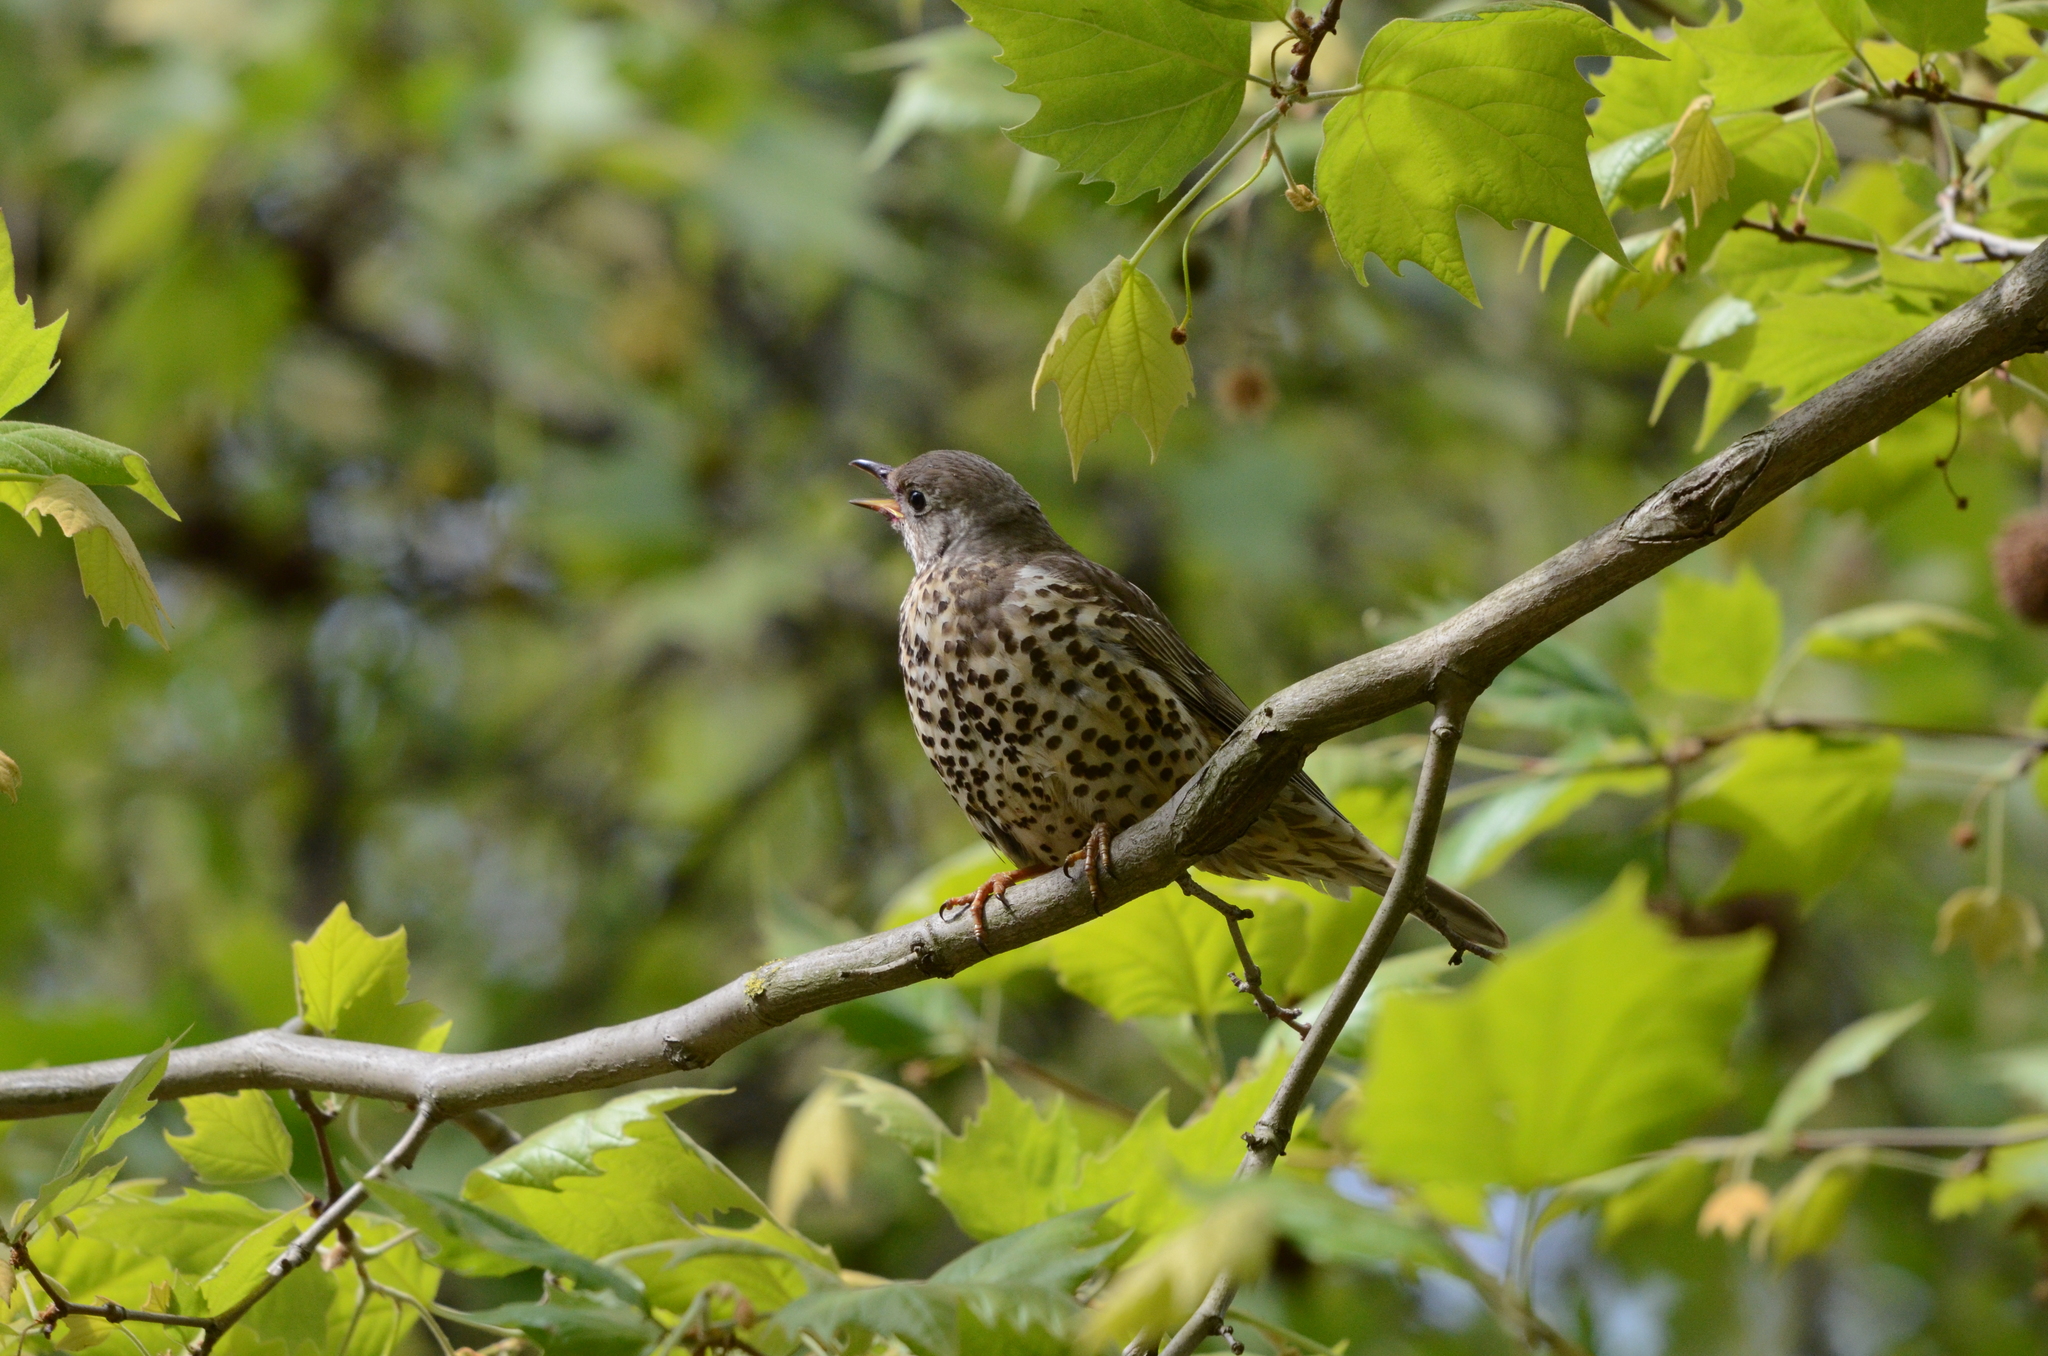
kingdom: Animalia
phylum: Chordata
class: Aves
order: Passeriformes
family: Turdidae
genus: Turdus
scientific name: Turdus viscivorus
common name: Mistle thrush
